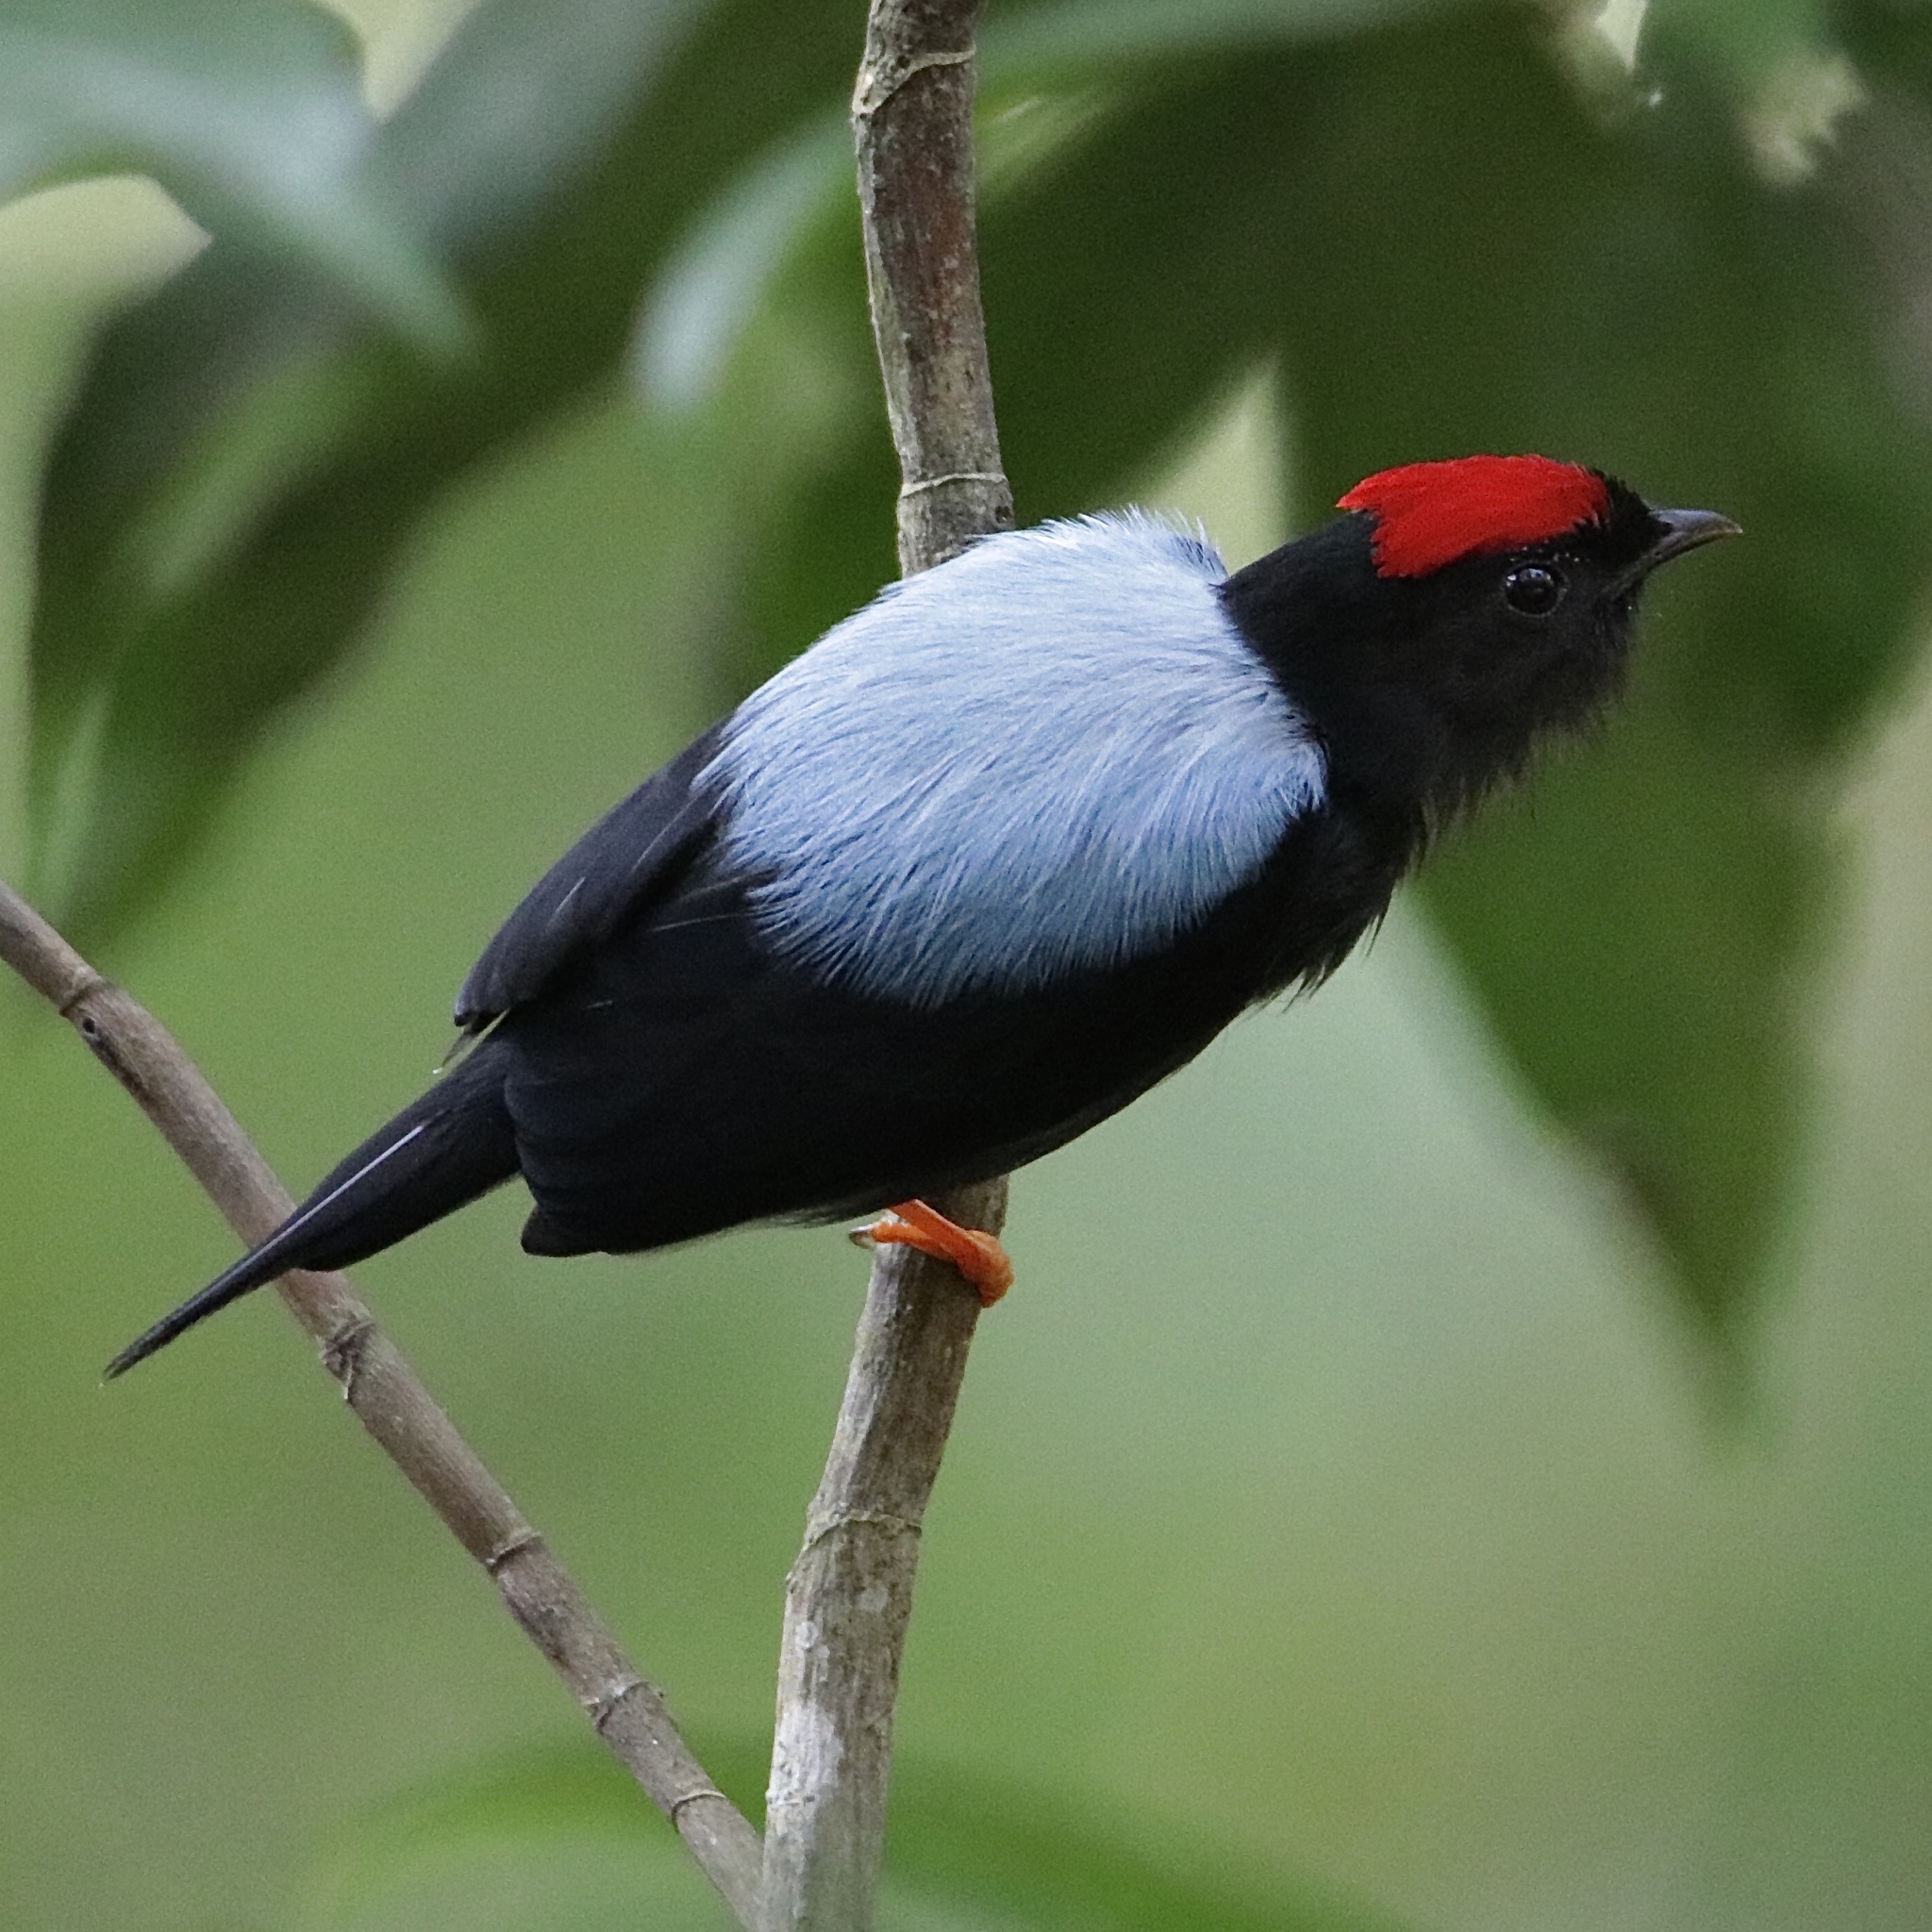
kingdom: Animalia
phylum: Chordata
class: Aves
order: Passeriformes
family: Pipridae
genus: Chiroxiphia
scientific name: Chiroxiphia lanceolata
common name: Lance-tailed manakin
